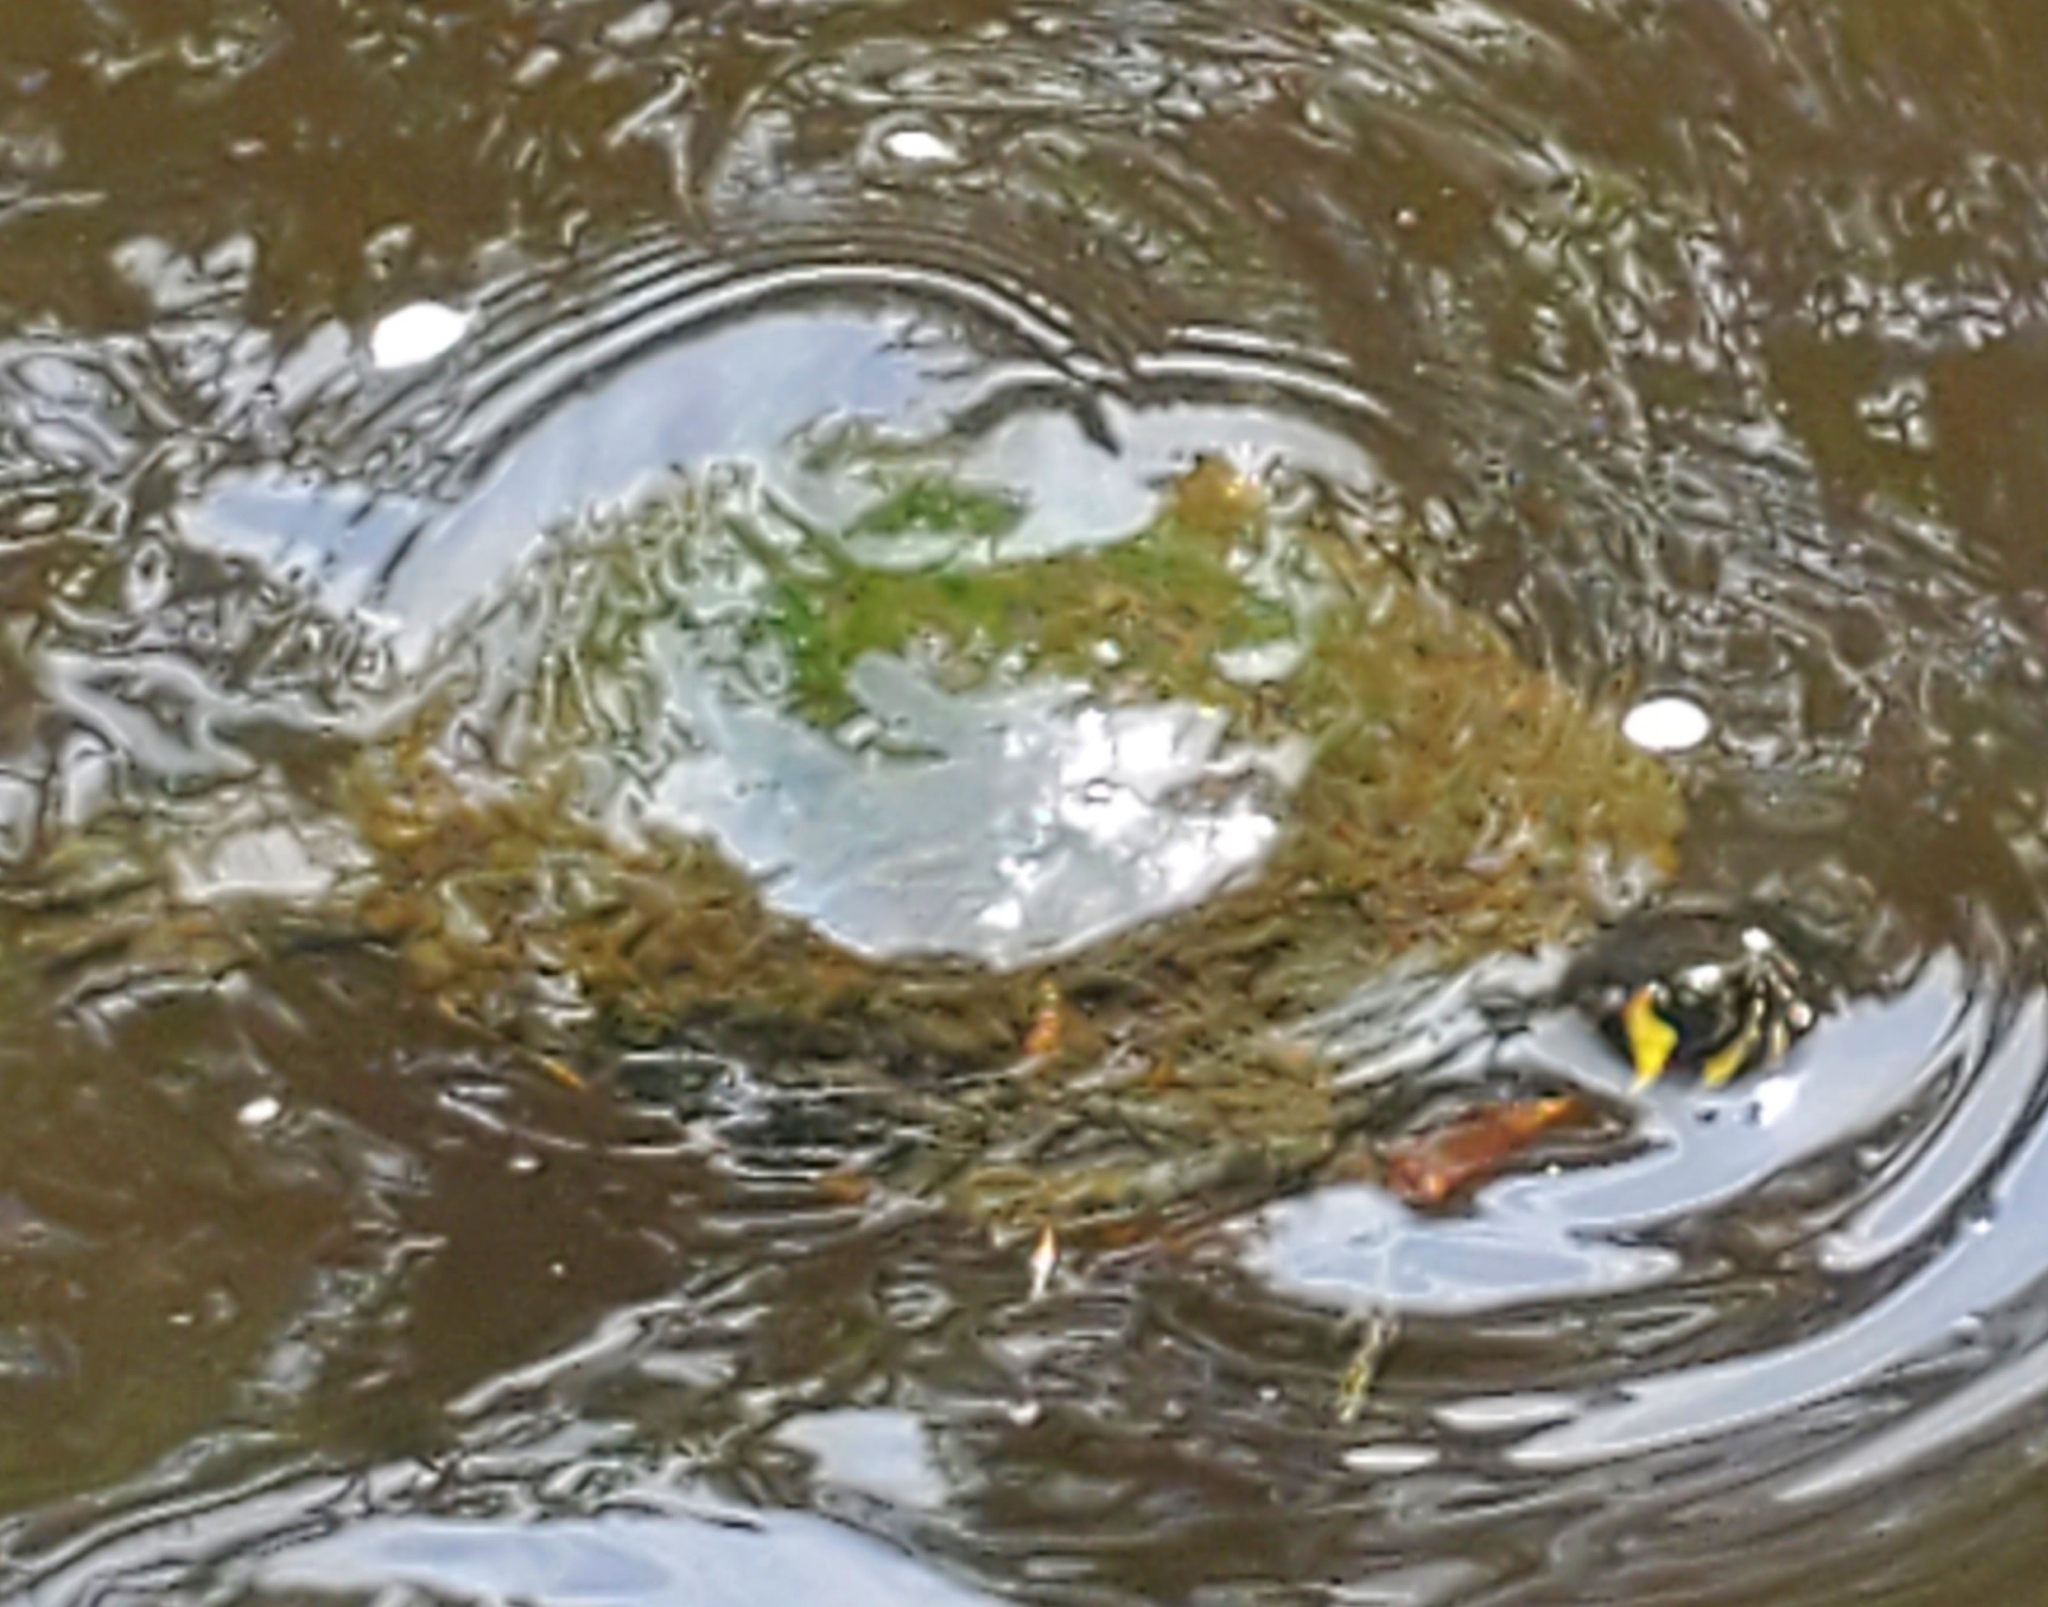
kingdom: Animalia
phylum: Chordata
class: Testudines
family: Emydidae
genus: Trachemys
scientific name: Trachemys scripta
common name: Slider
